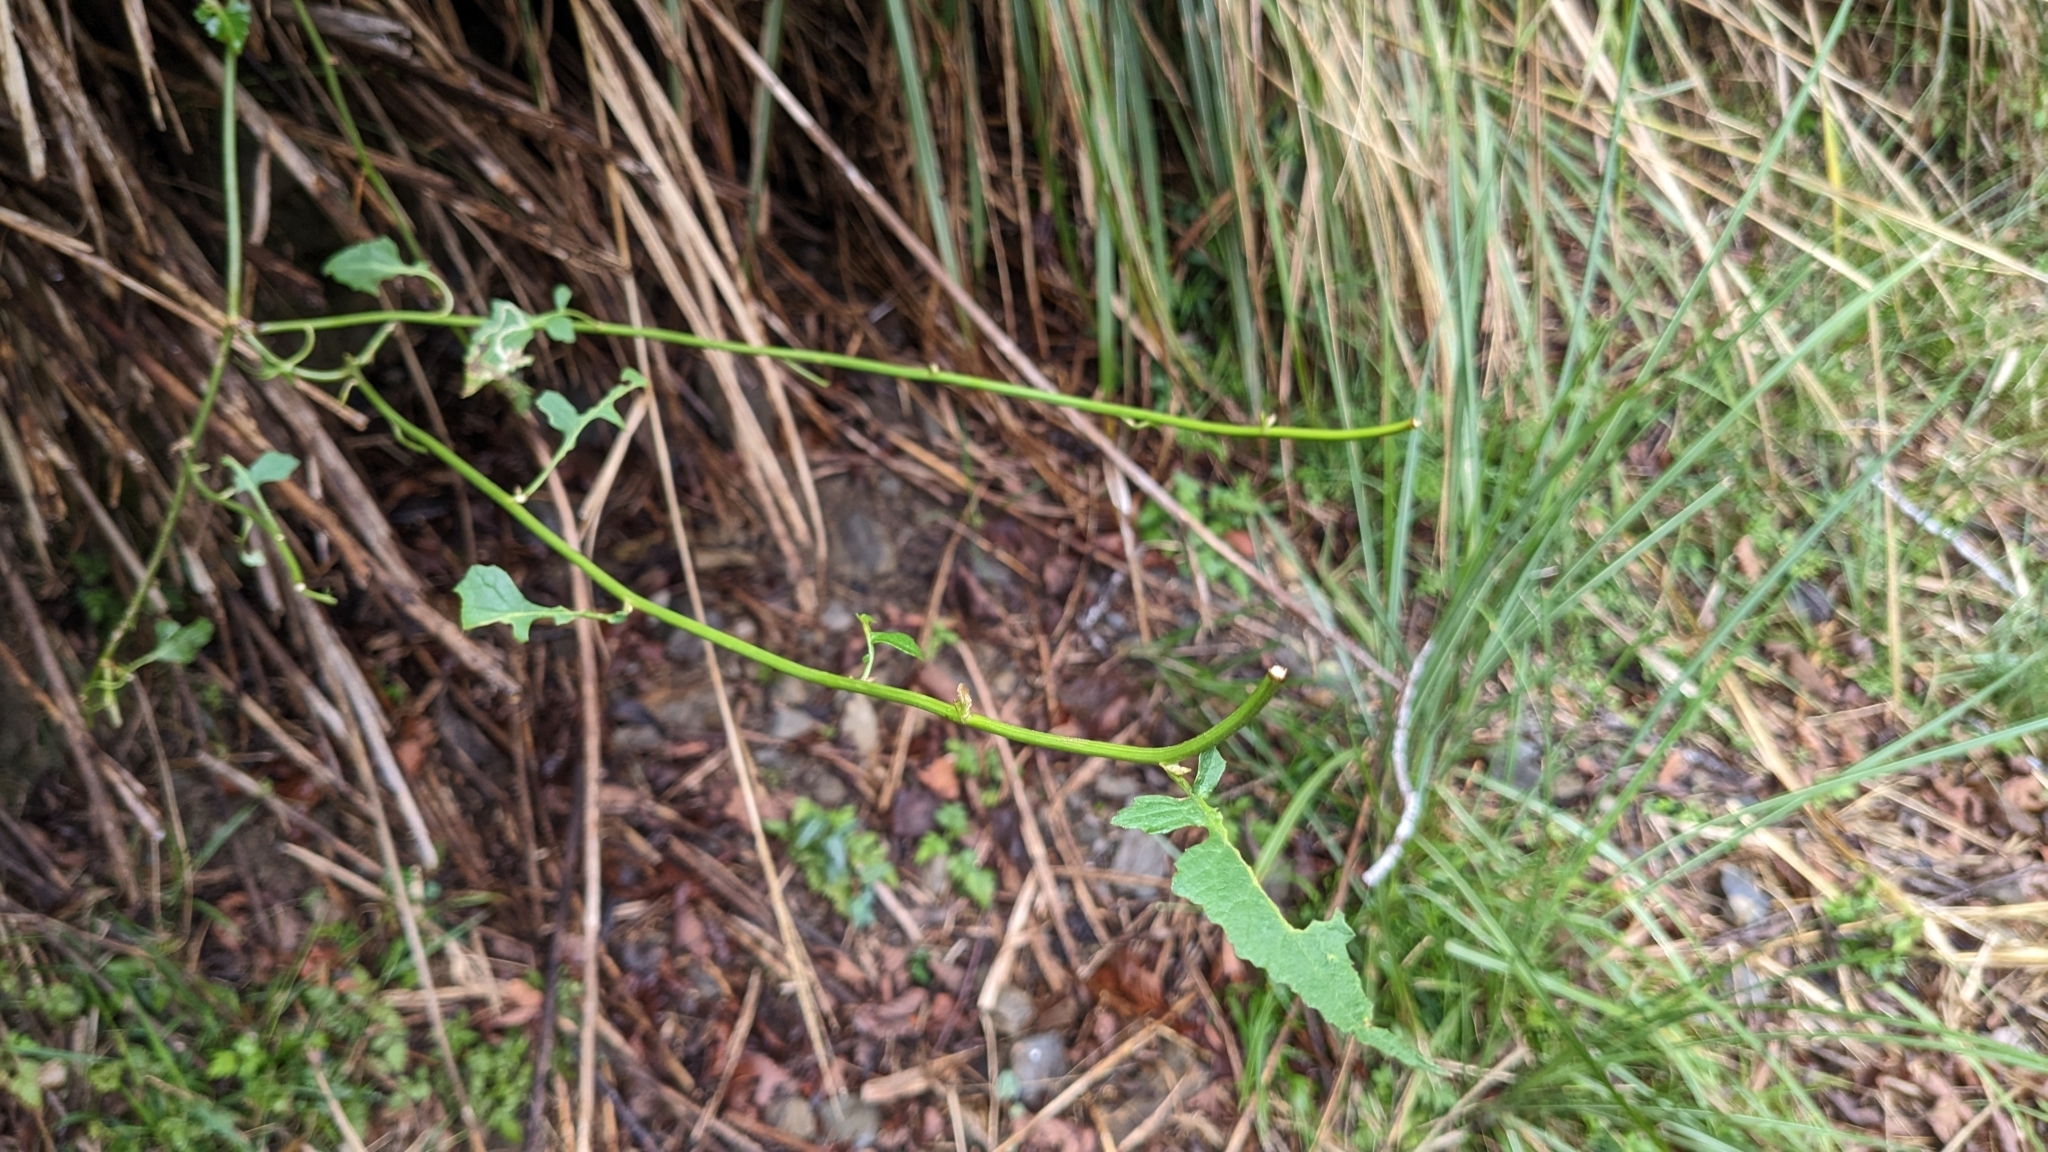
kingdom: Plantae
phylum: Tracheophyta
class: Magnoliopsida
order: Asterales
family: Asteraceae
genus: Senecio
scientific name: Senecio scandens
